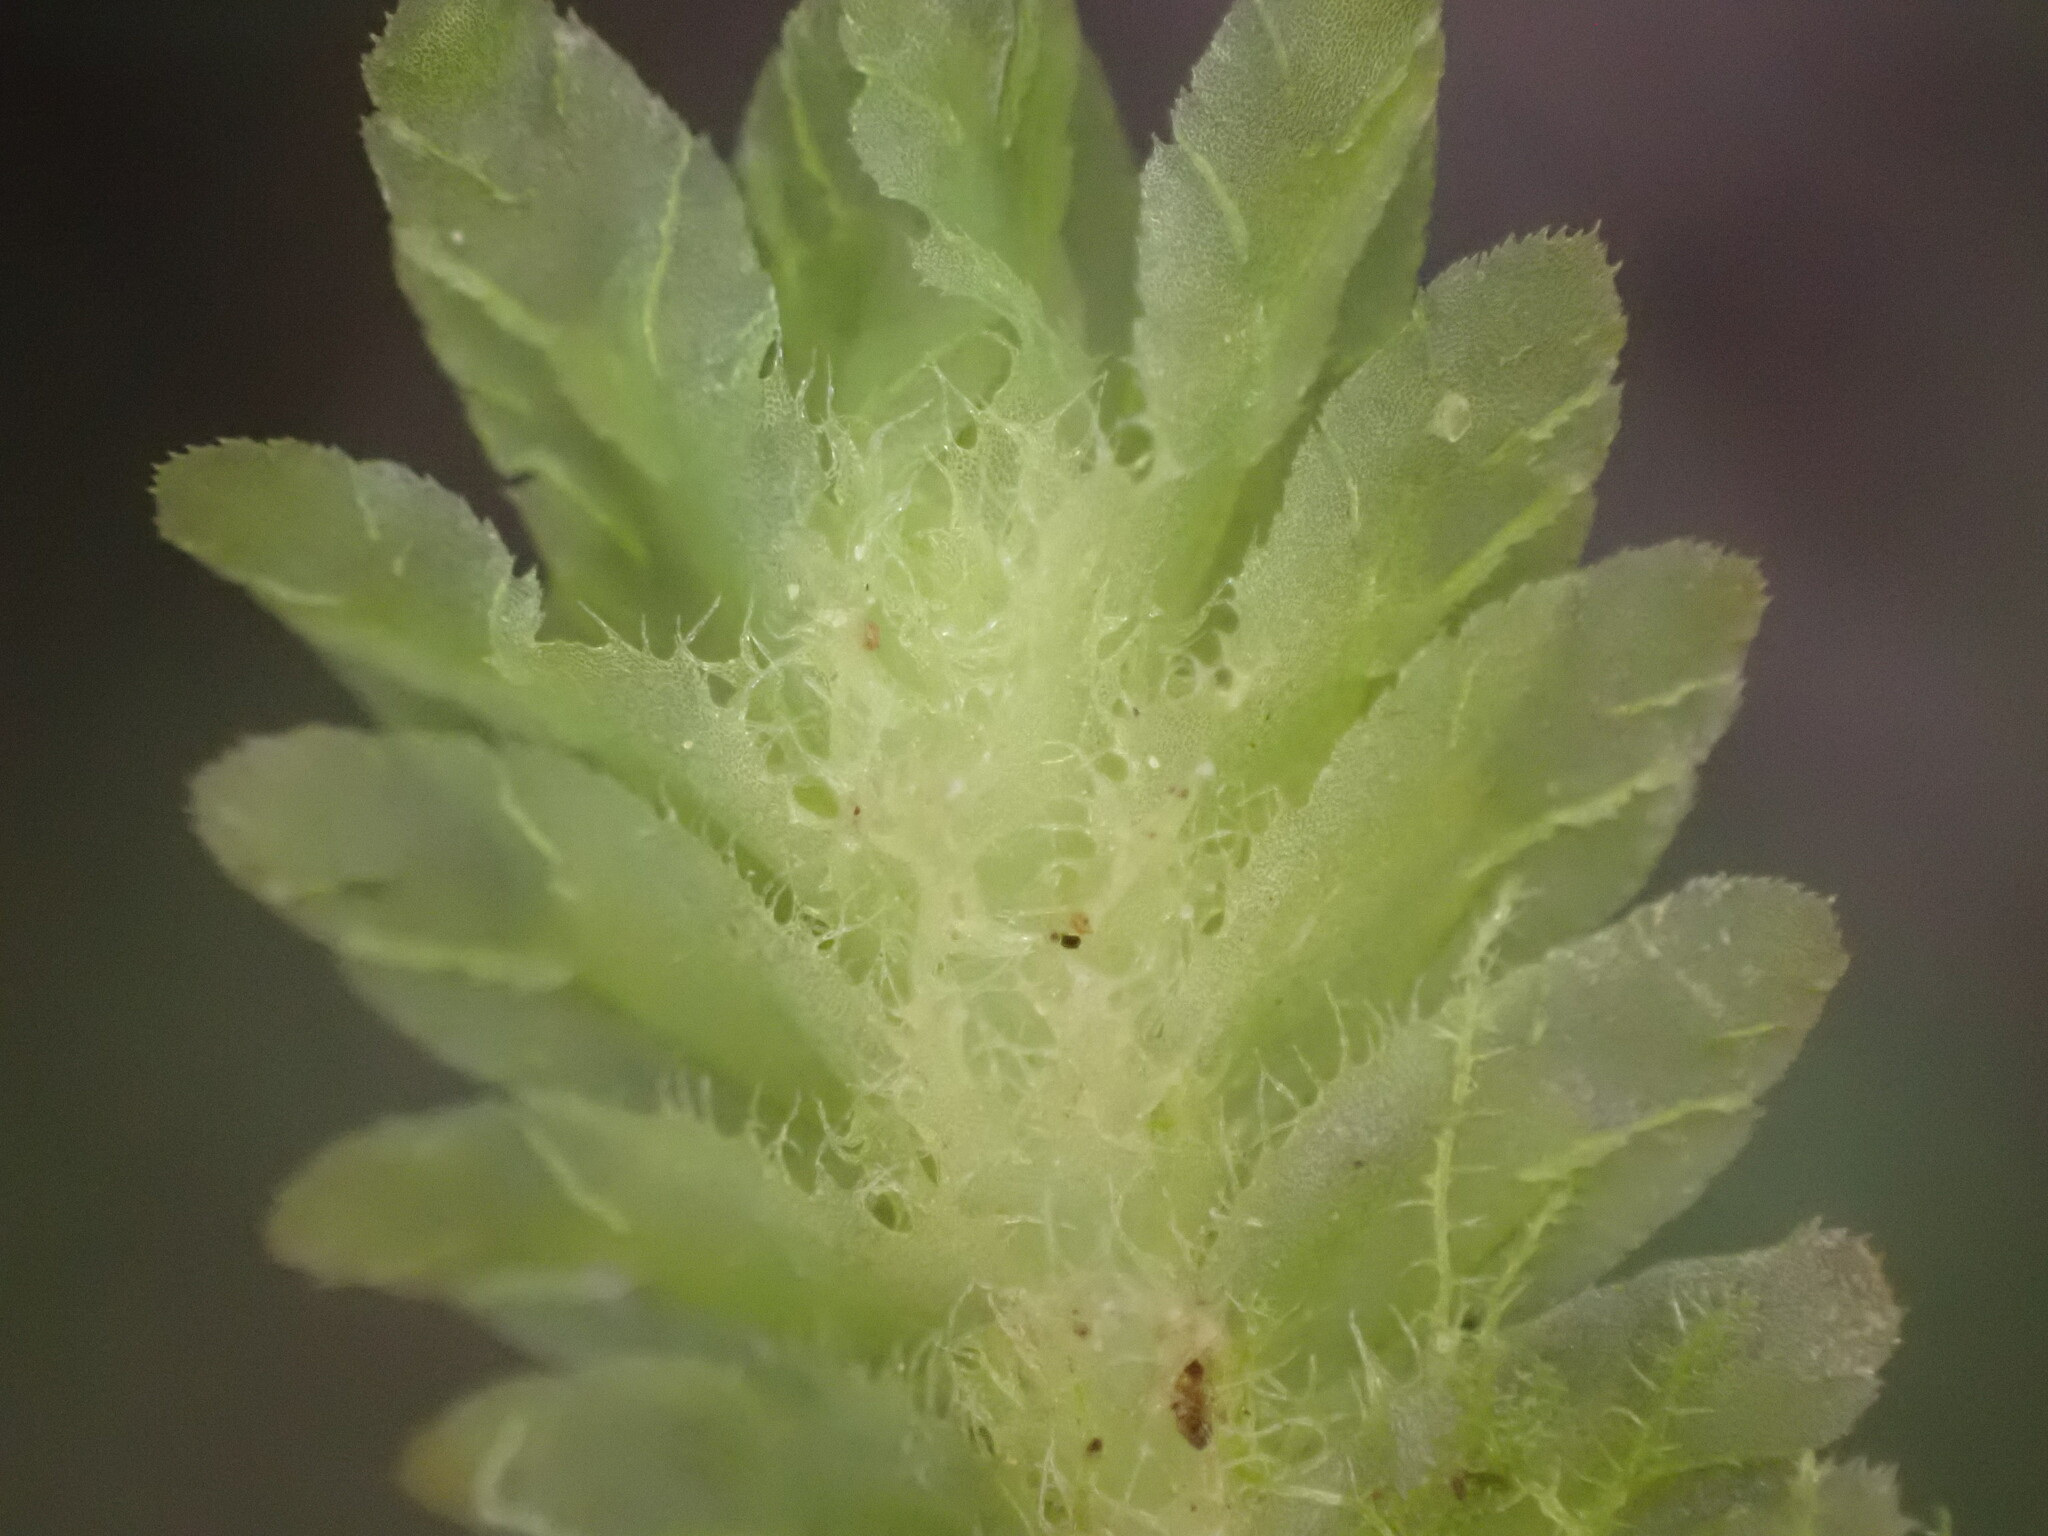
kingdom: Plantae
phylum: Marchantiophyta
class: Jungermanniopsida
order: Jungermanniales
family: Schistochilaceae
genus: Schistochila
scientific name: Schistochila balfouriana
